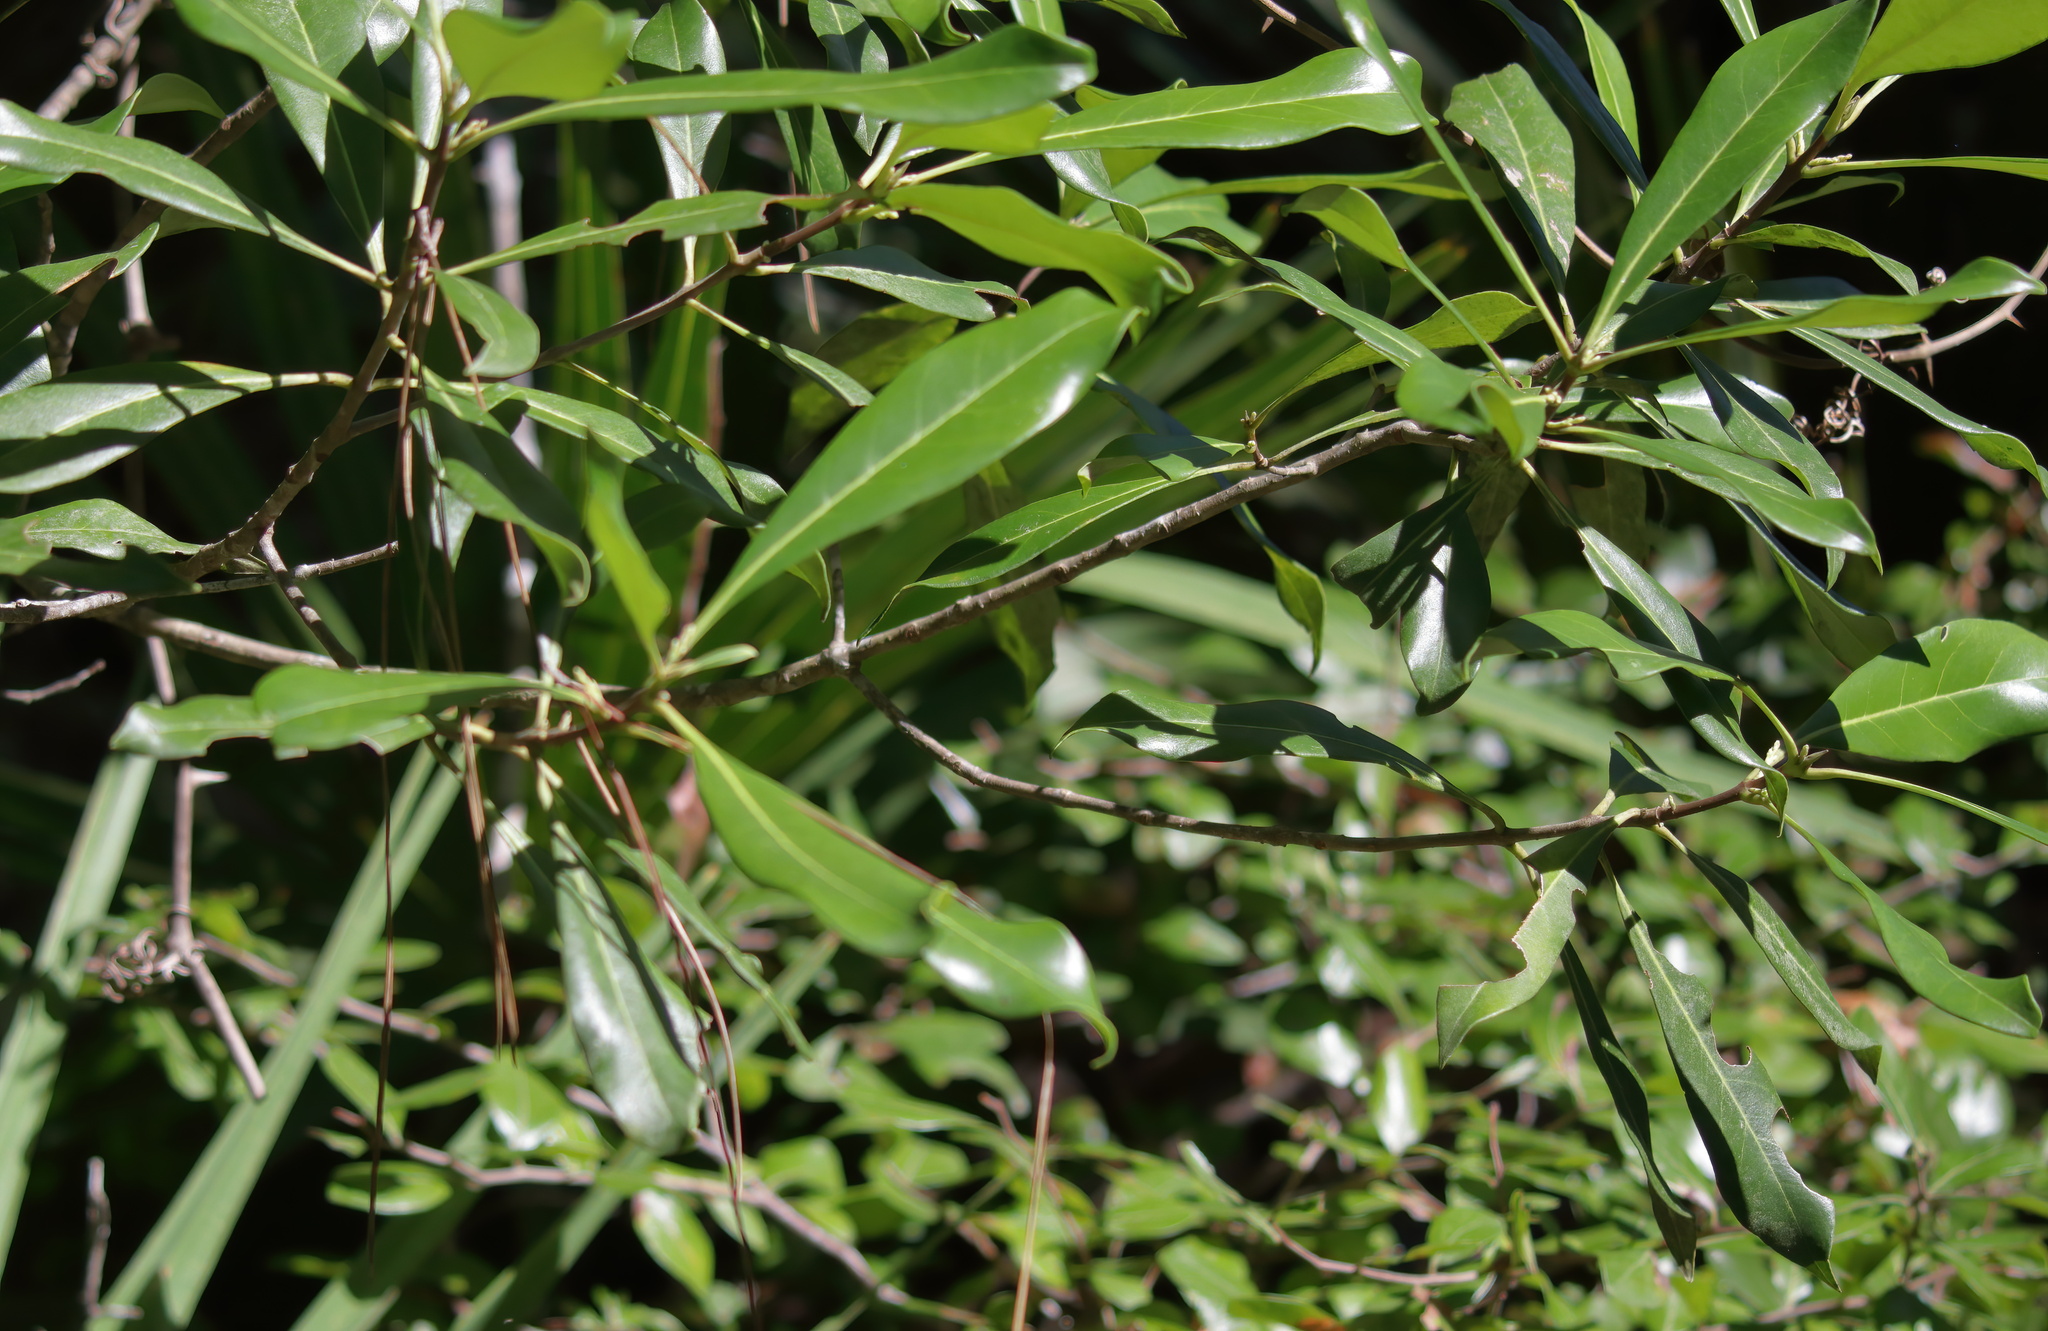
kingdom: Plantae
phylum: Tracheophyta
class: Magnoliopsida
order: Lamiales
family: Oleaceae
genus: Cartrema
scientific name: Cartrema americana
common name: Devilwood
